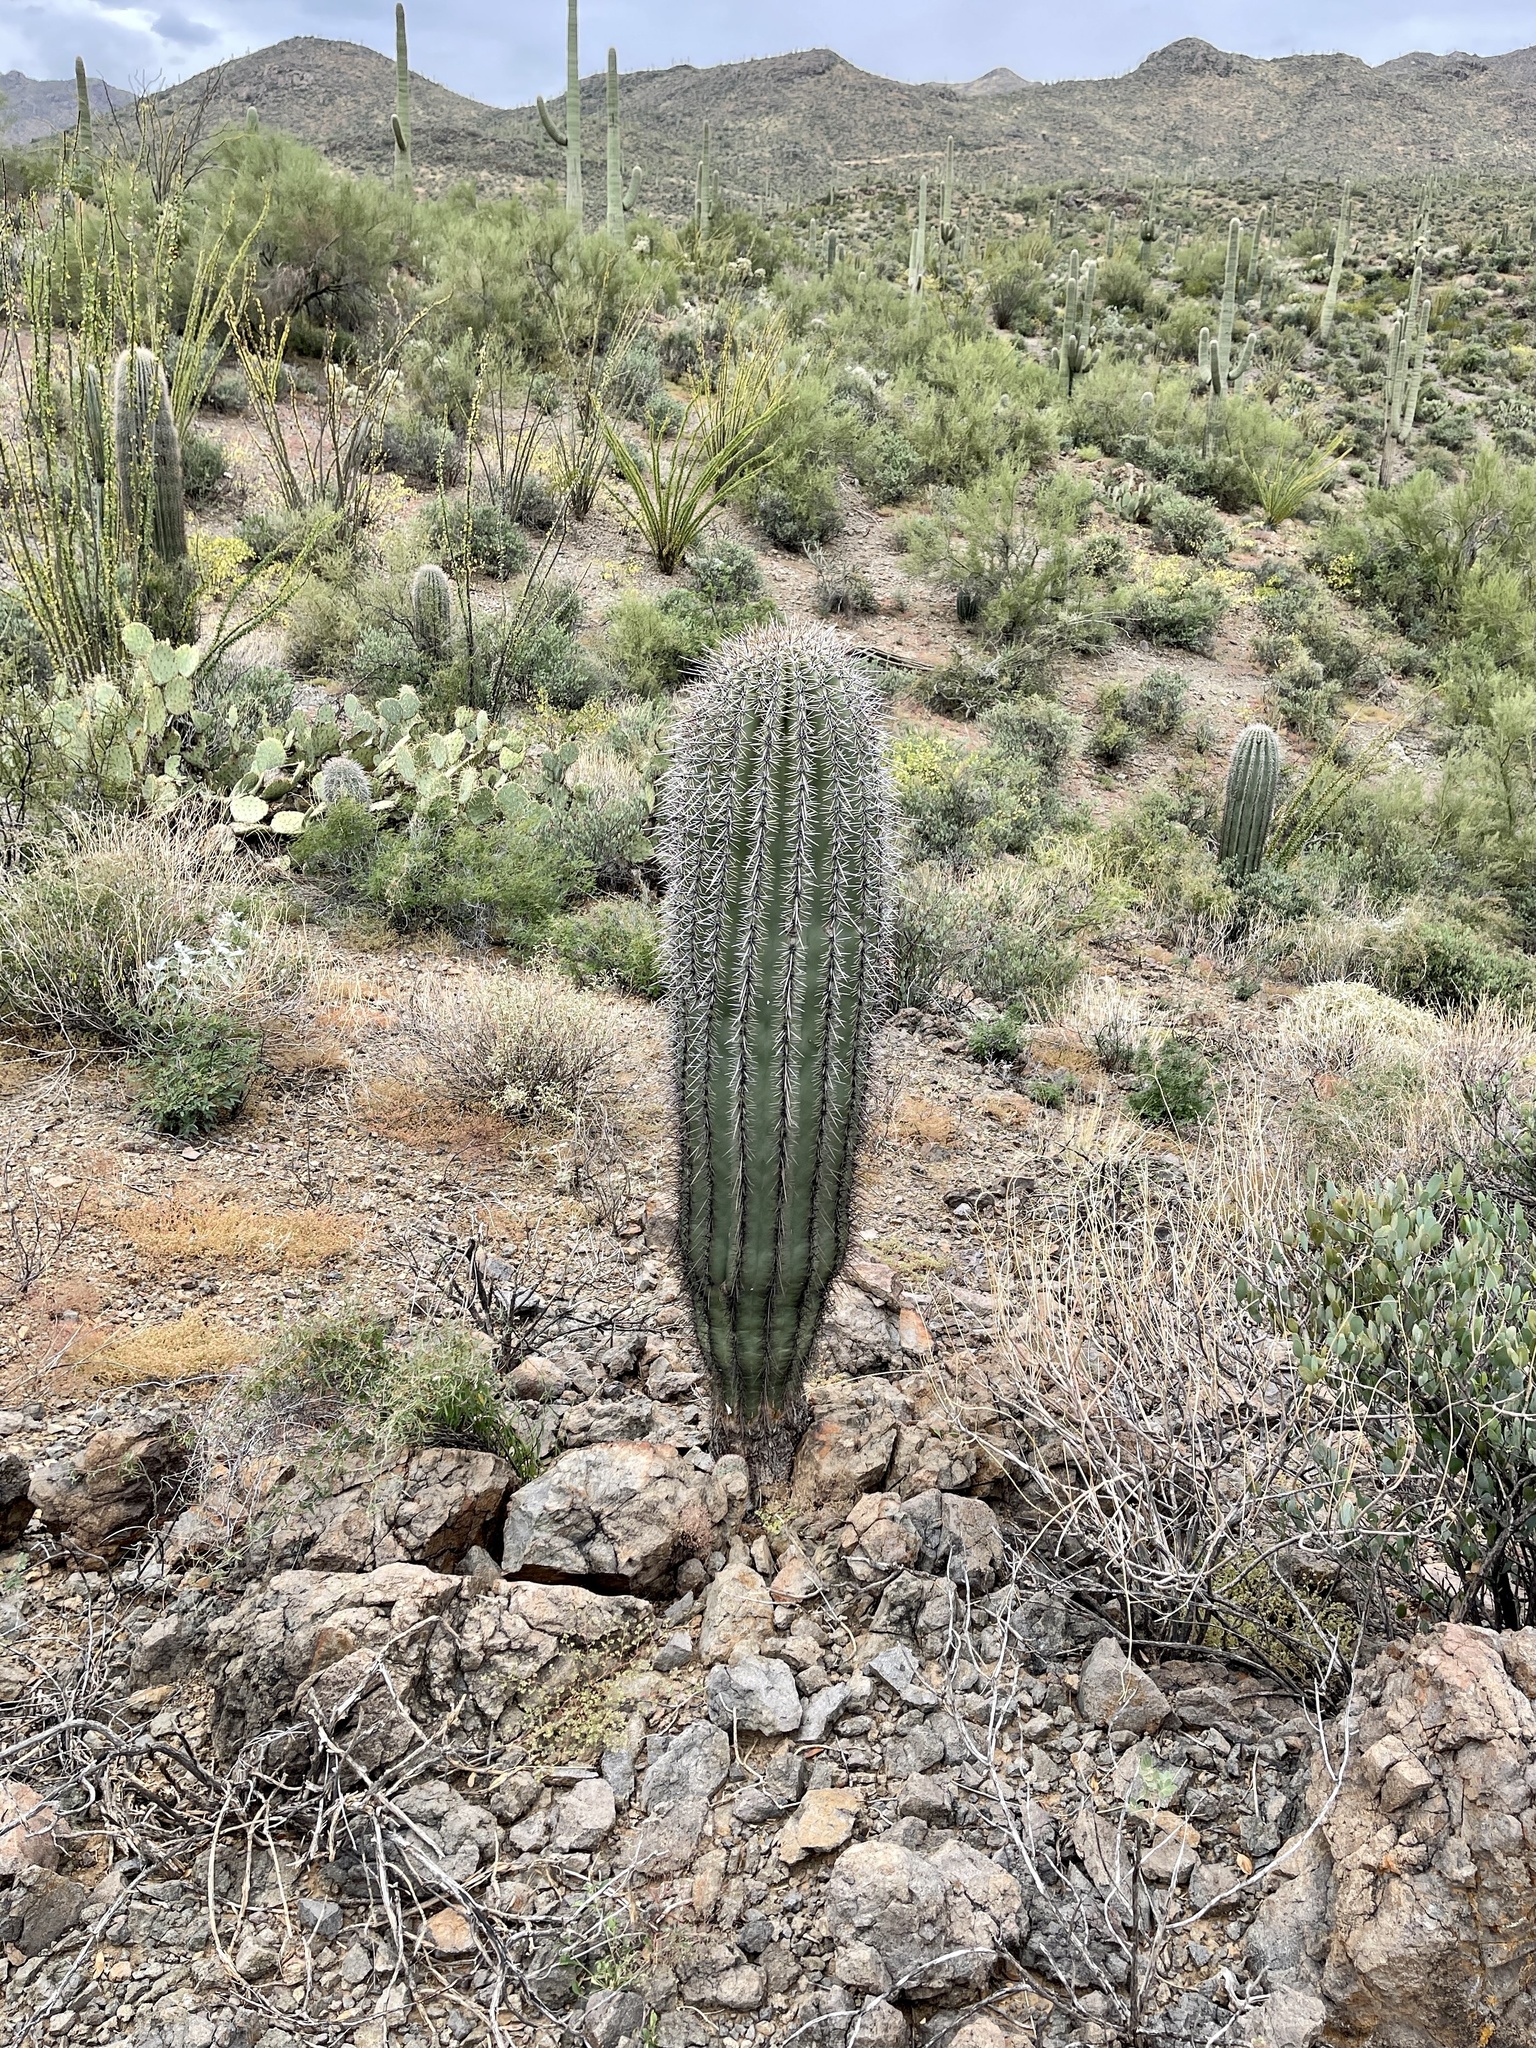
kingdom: Plantae
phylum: Tracheophyta
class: Magnoliopsida
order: Caryophyllales
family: Cactaceae
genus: Carnegiea
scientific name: Carnegiea gigantea
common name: Saguaro
